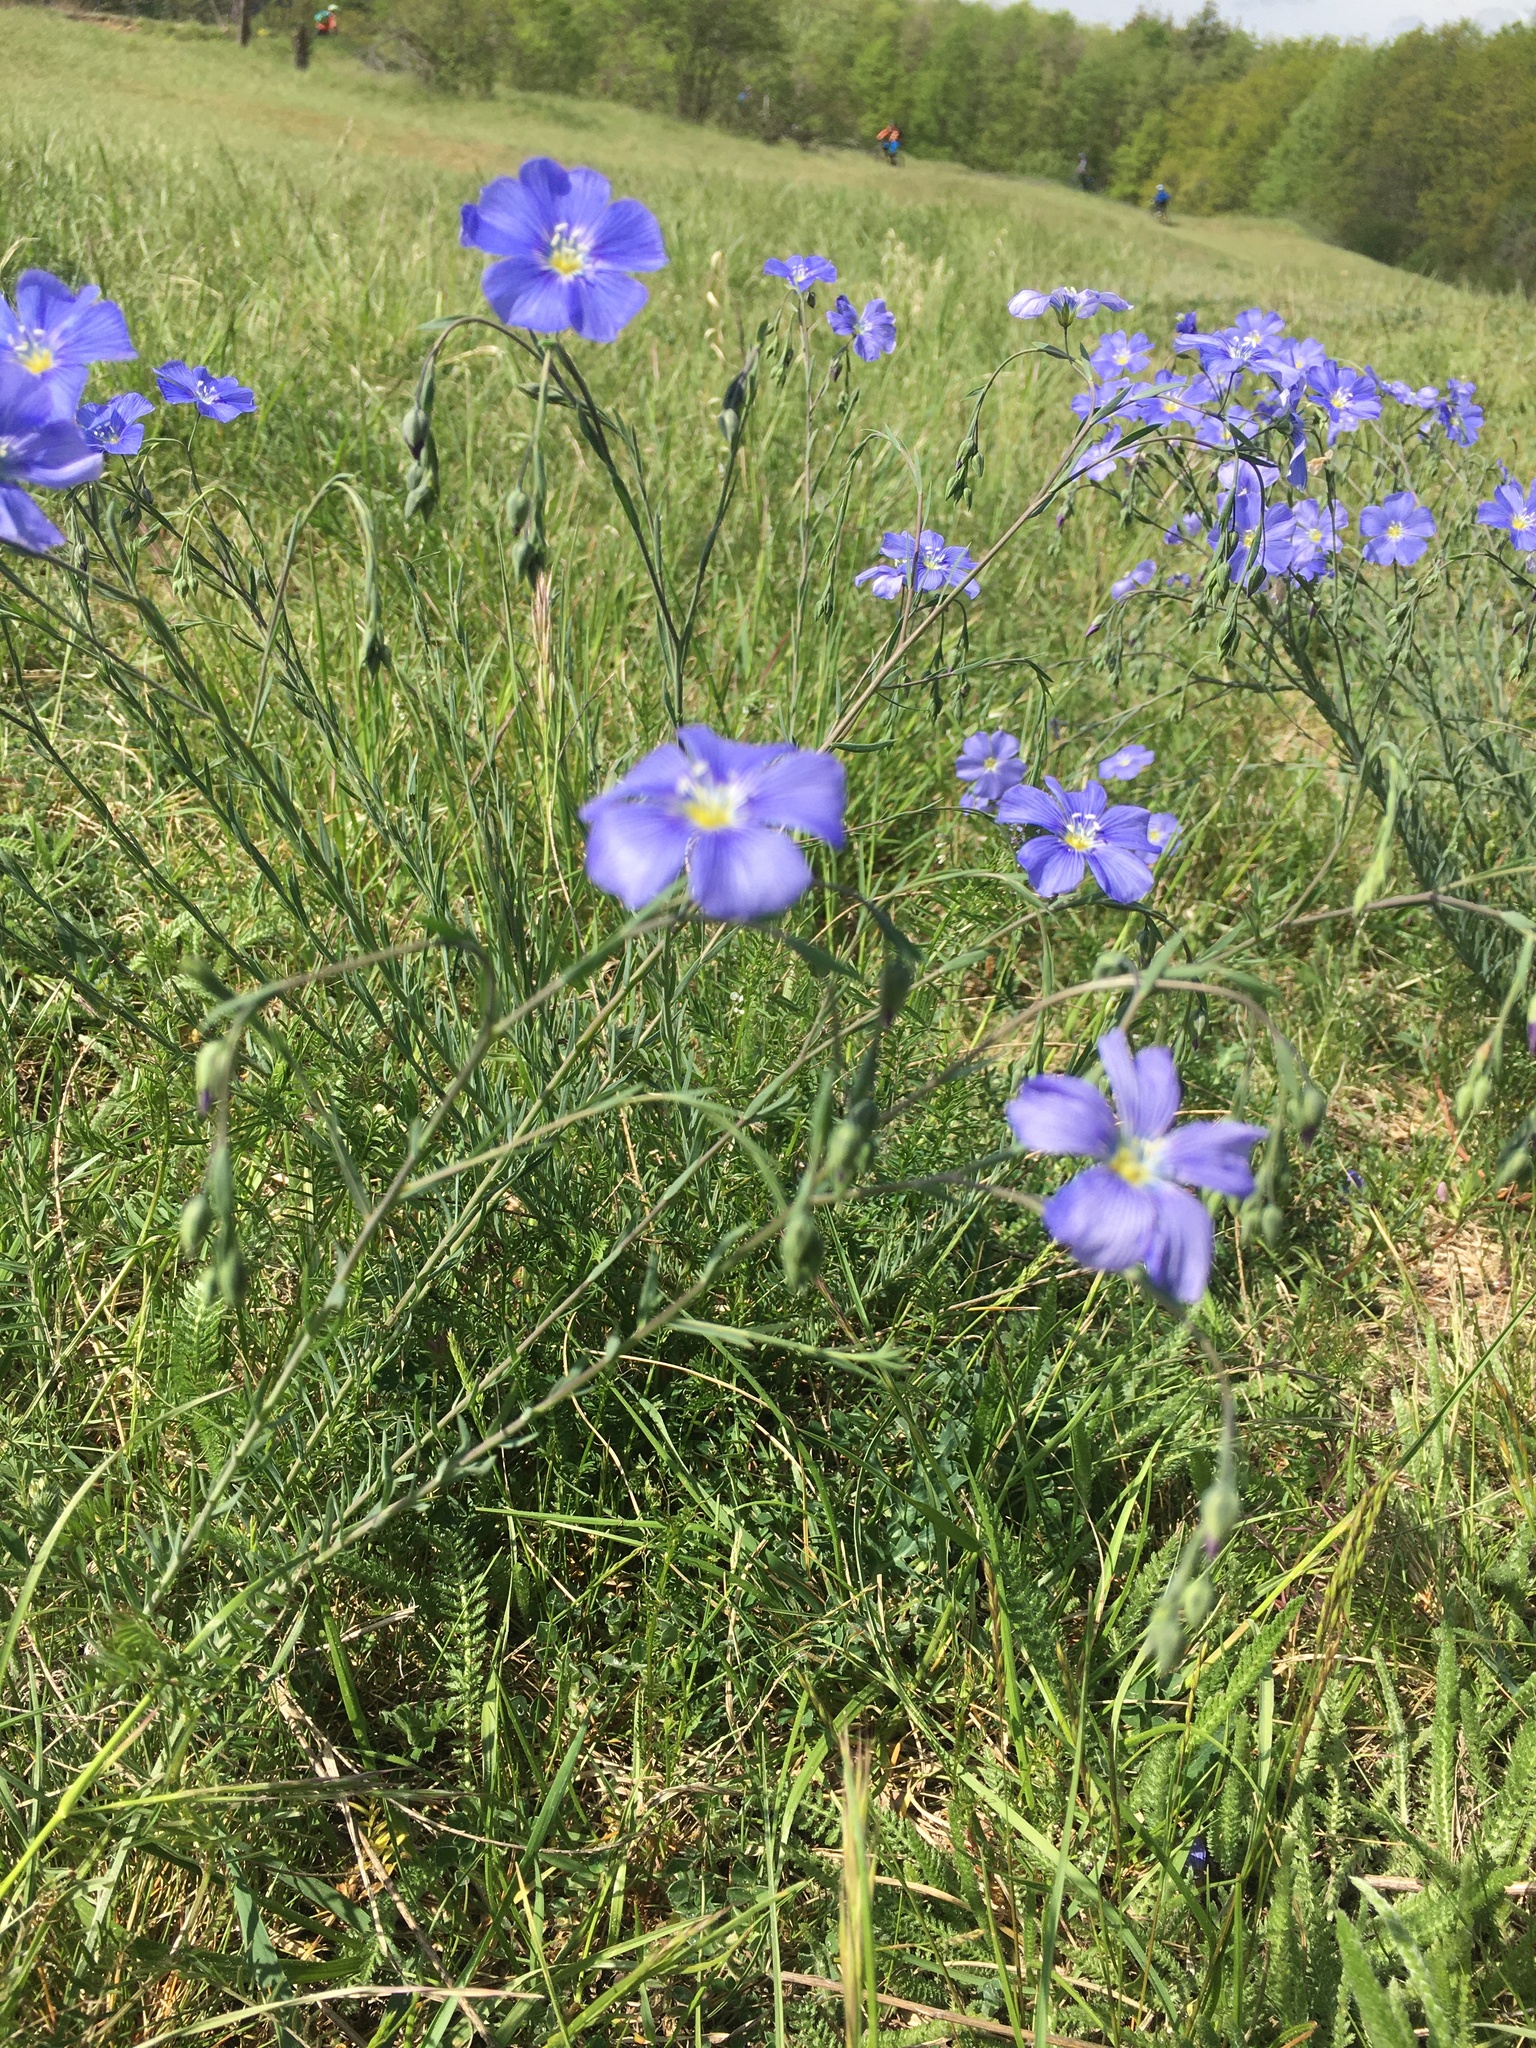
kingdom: Plantae
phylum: Tracheophyta
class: Magnoliopsida
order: Malpighiales
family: Linaceae
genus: Linum
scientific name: Linum austriacum
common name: Austrian flax
